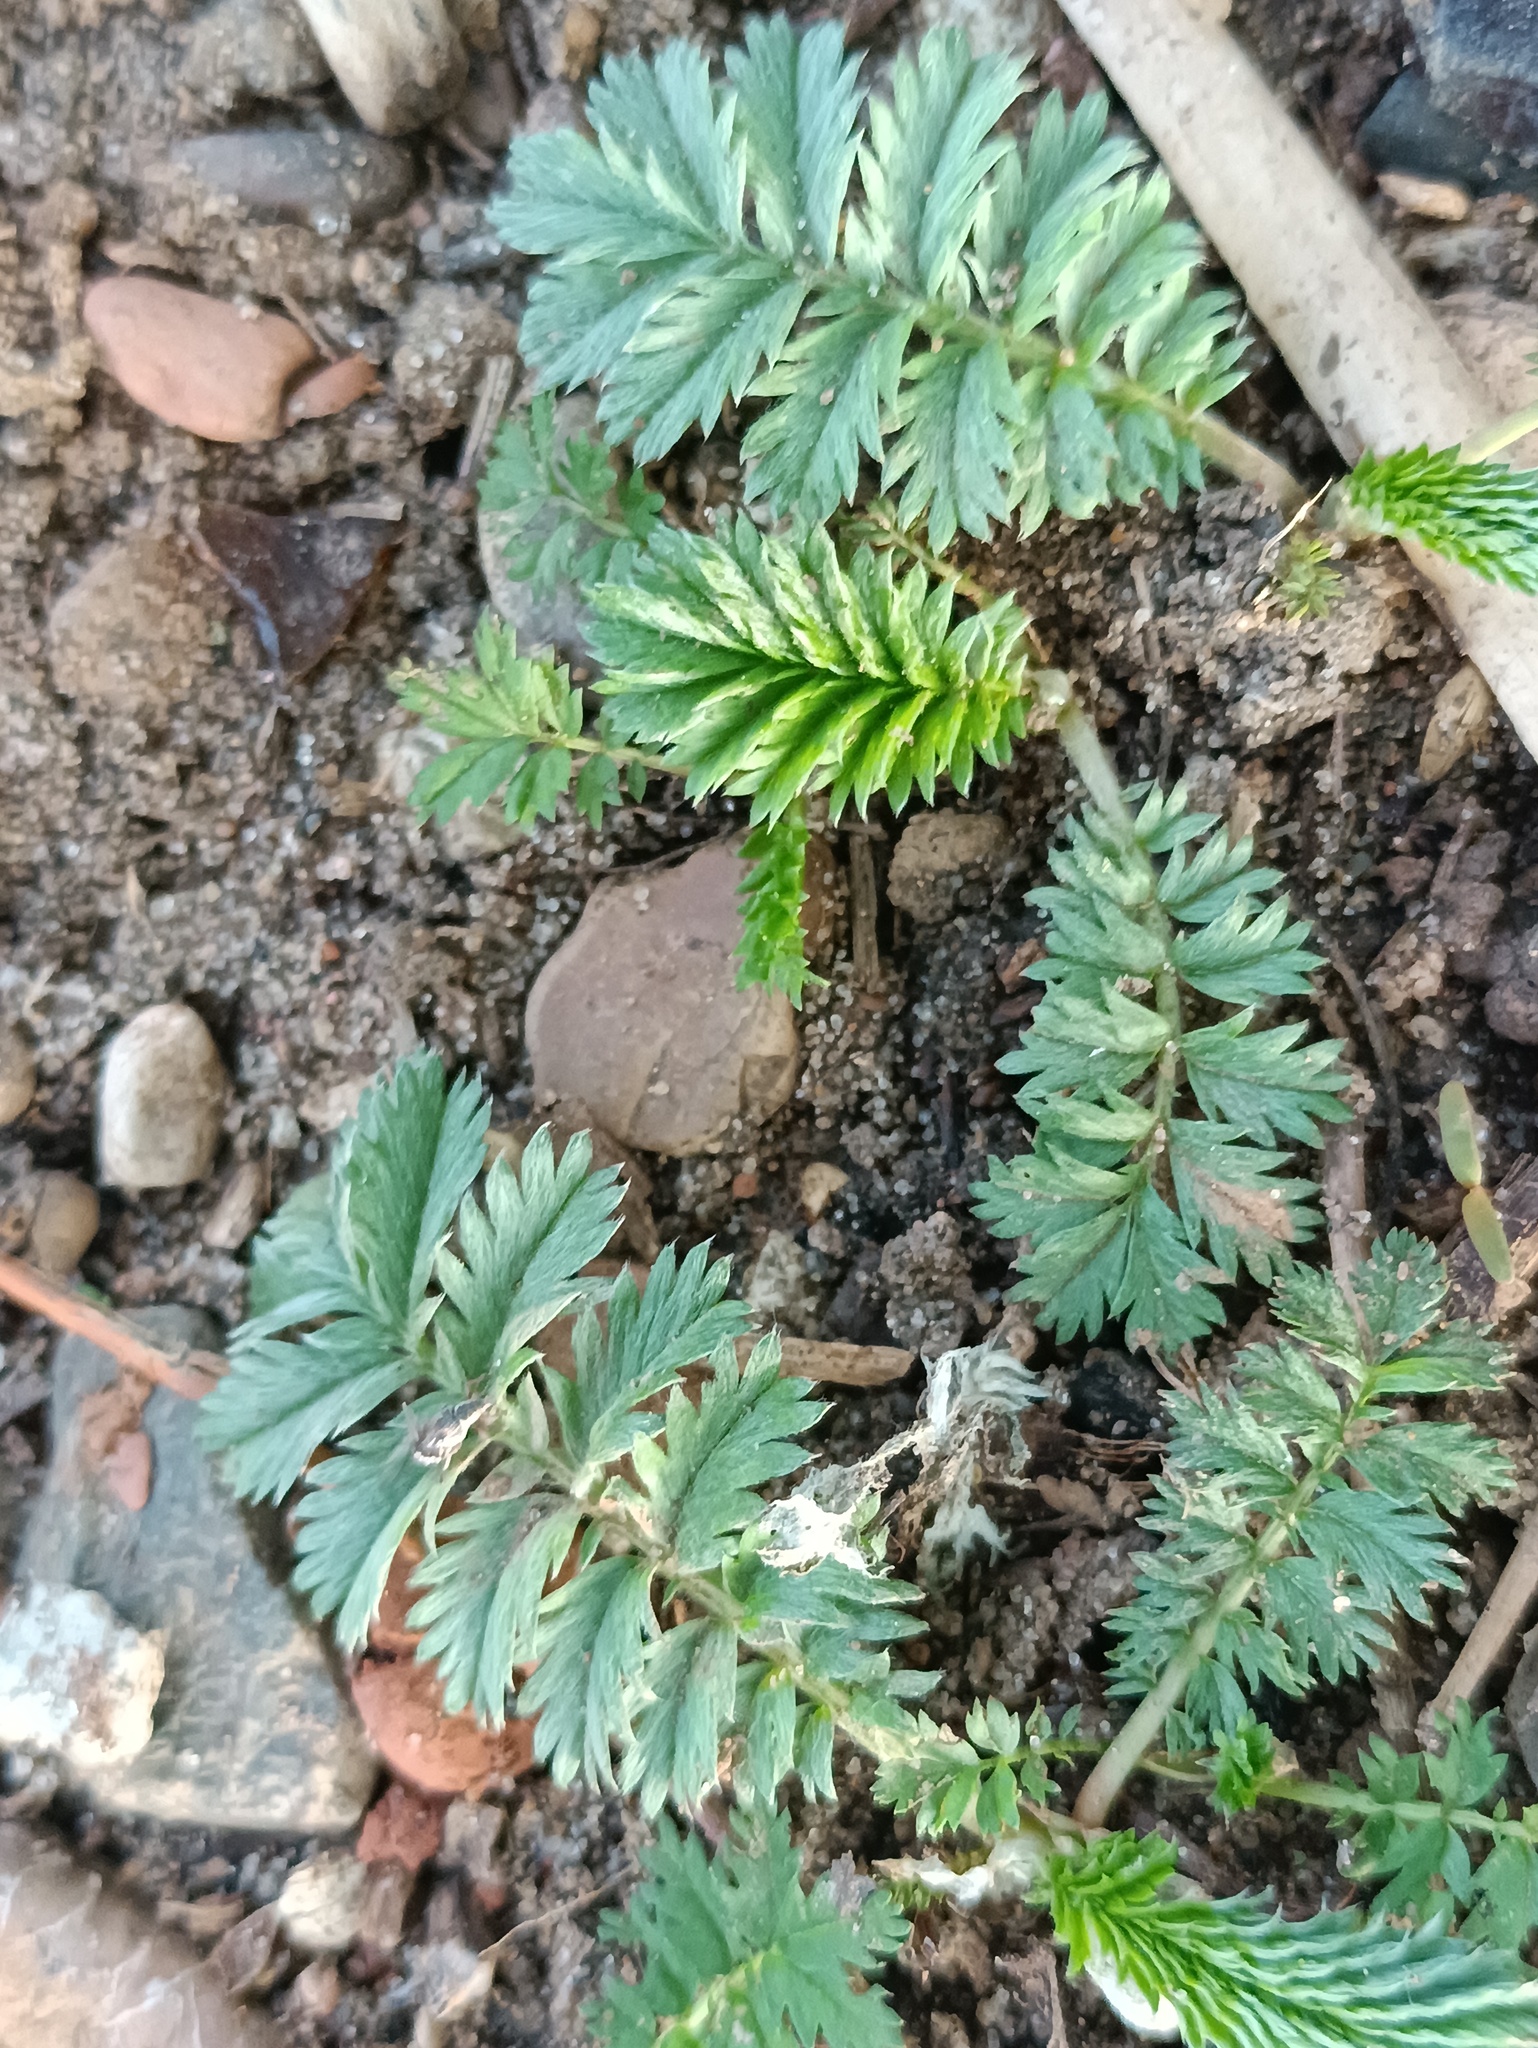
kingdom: Plantae
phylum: Tracheophyta
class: Magnoliopsida
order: Rosales
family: Rosaceae
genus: Argentina
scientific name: Argentina anserina
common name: Common silverweed
